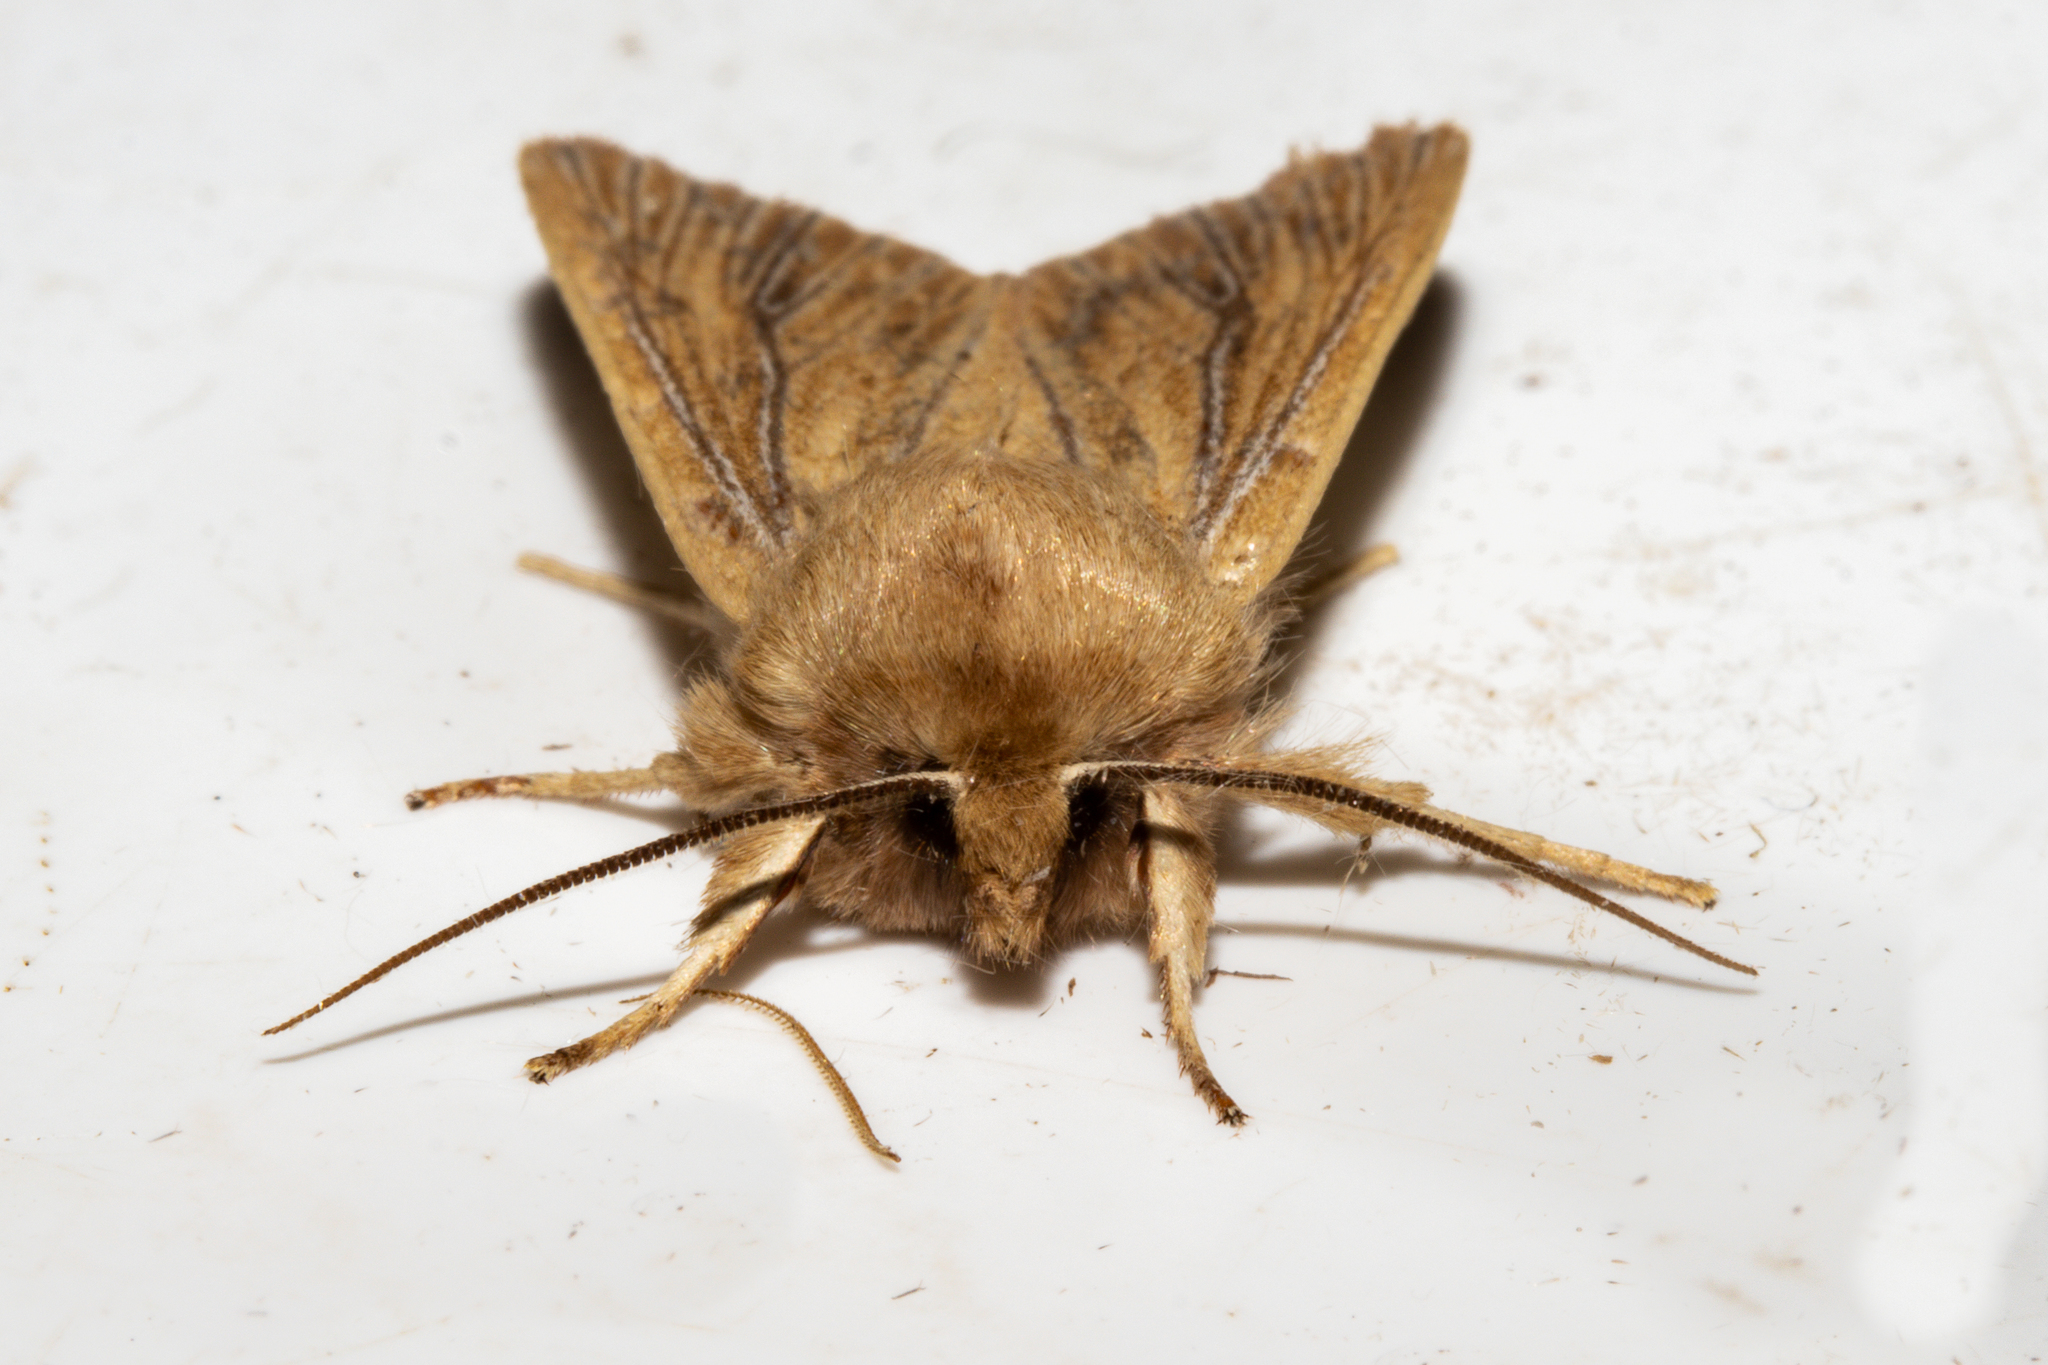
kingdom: Animalia
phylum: Arthropoda
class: Insecta
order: Lepidoptera
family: Noctuidae
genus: Ichneutica
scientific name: Ichneutica arotis
